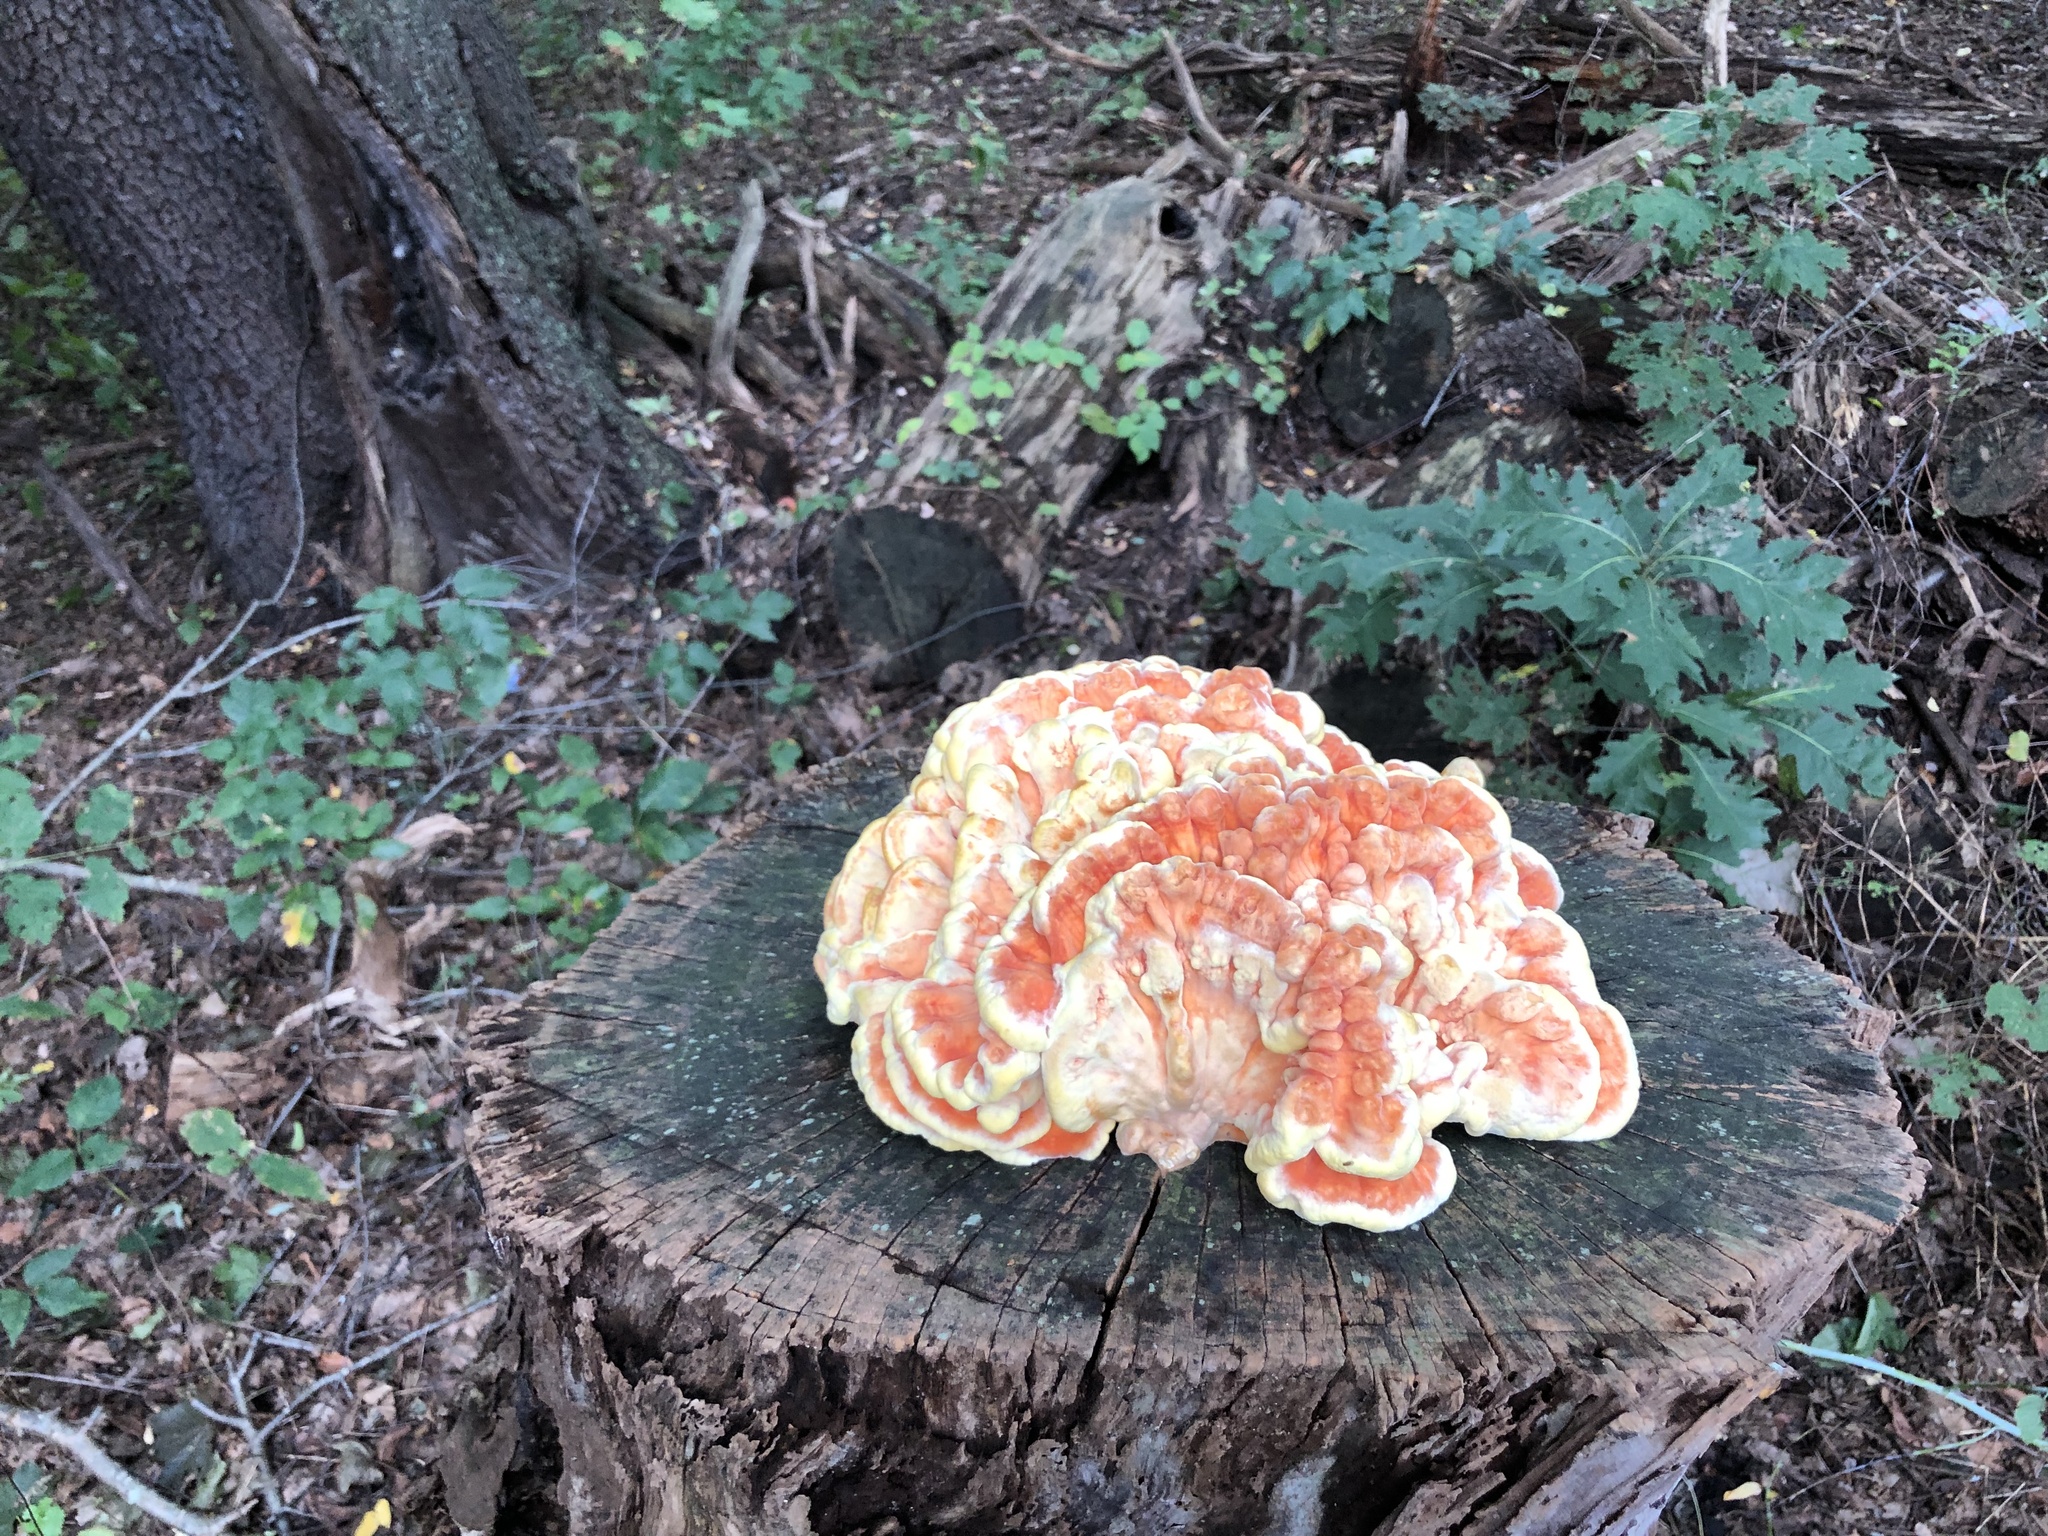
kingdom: Fungi
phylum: Basidiomycota
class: Agaricomycetes
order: Polyporales
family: Laetiporaceae
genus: Laetiporus
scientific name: Laetiporus sulphureus
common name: Chicken of the woods
